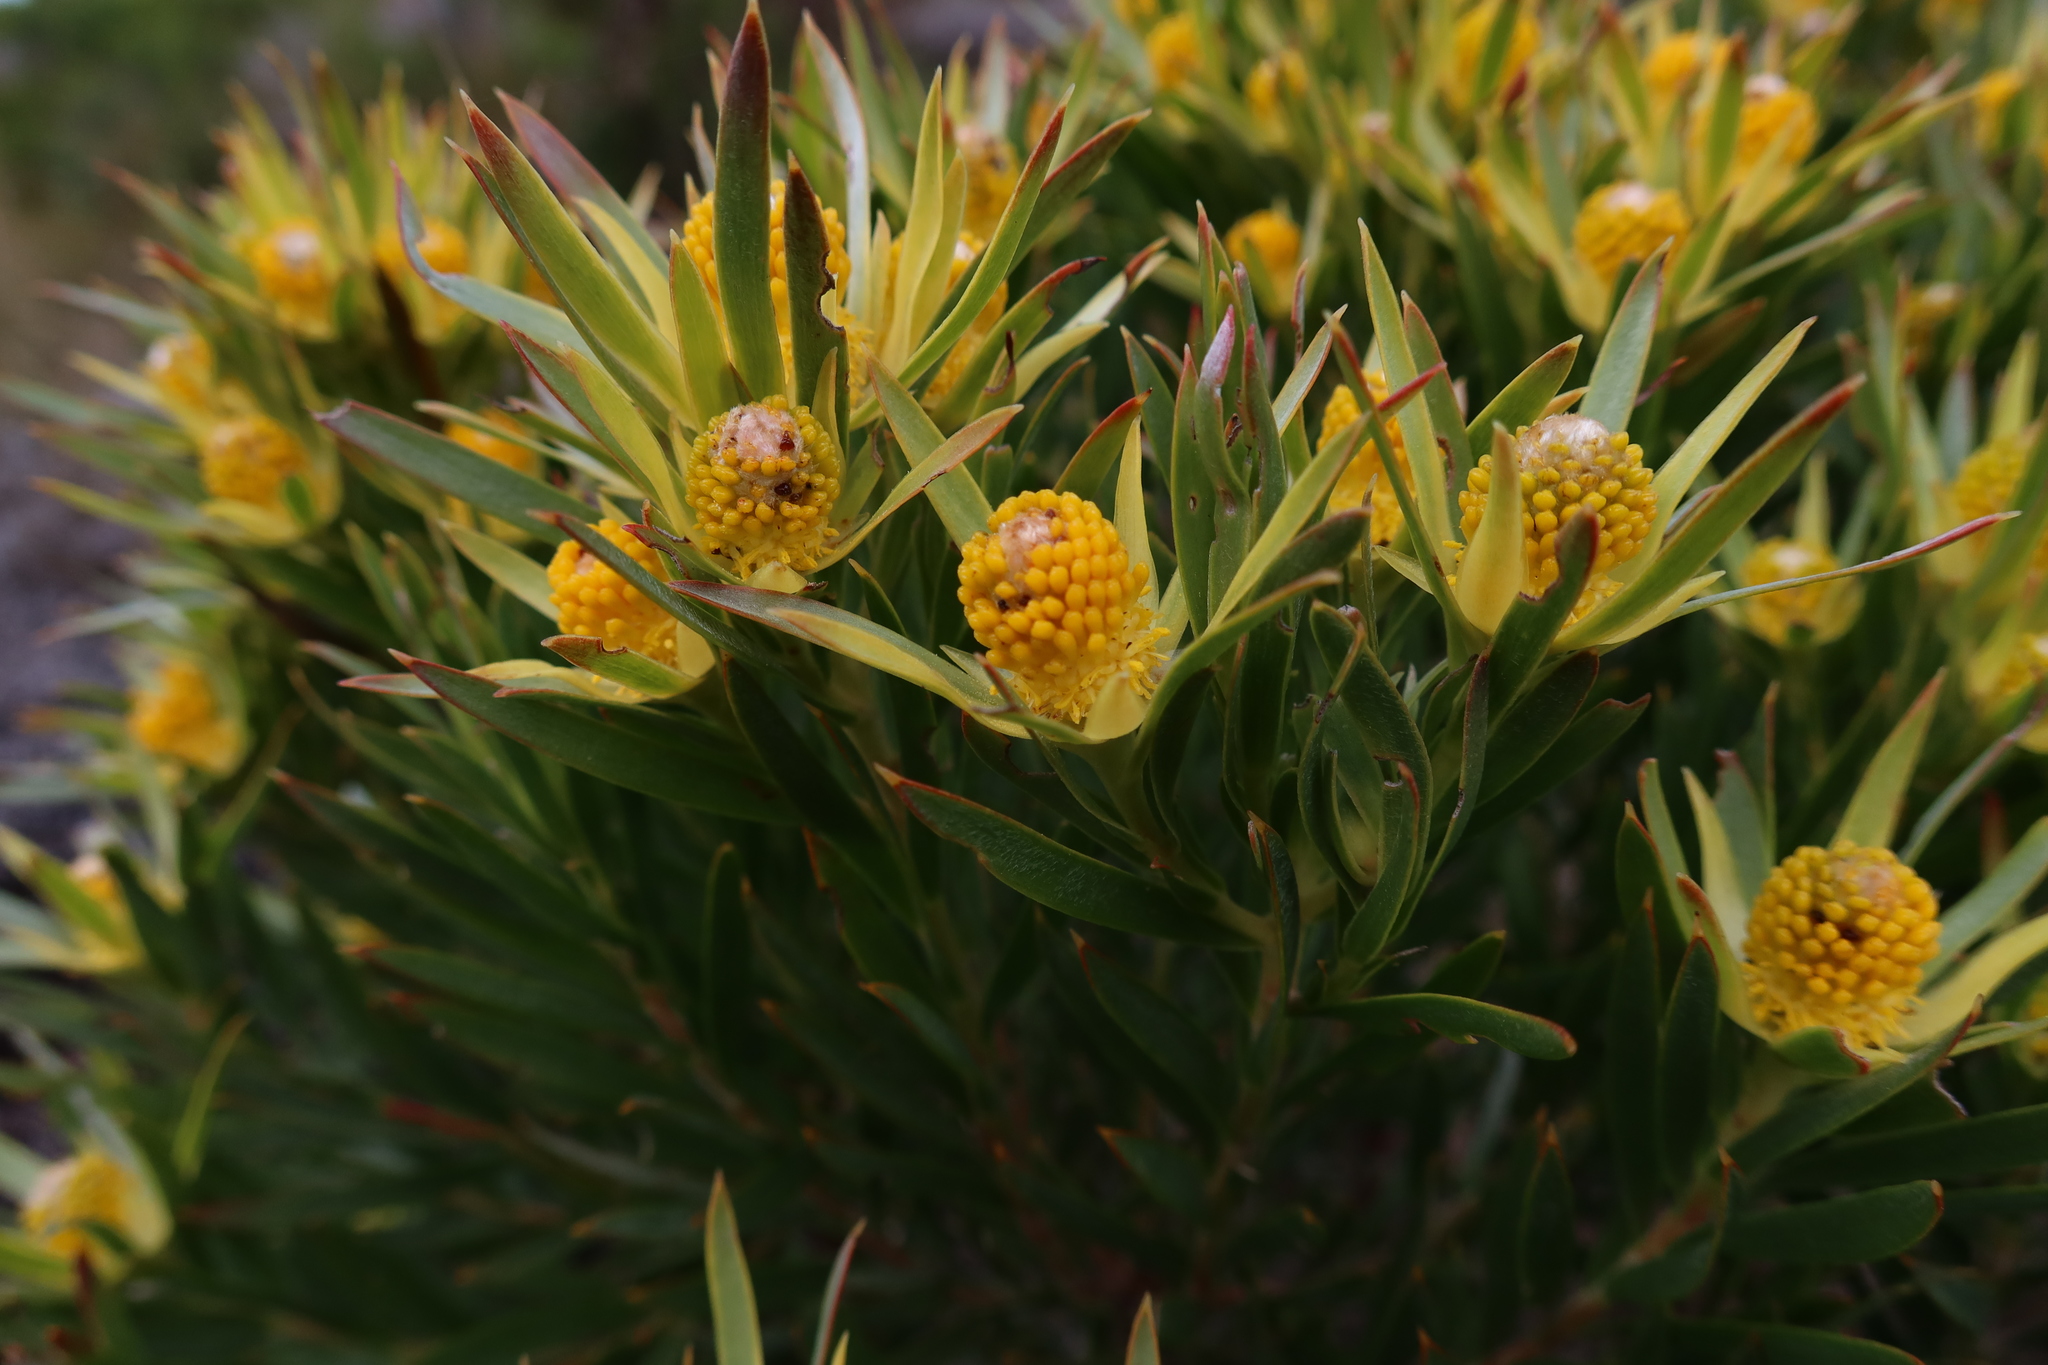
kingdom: Plantae
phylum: Tracheophyta
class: Magnoliopsida
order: Proteales
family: Proteaceae
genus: Leucadendron
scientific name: Leucadendron xanthoconus
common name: Sickle-leaf conebush
